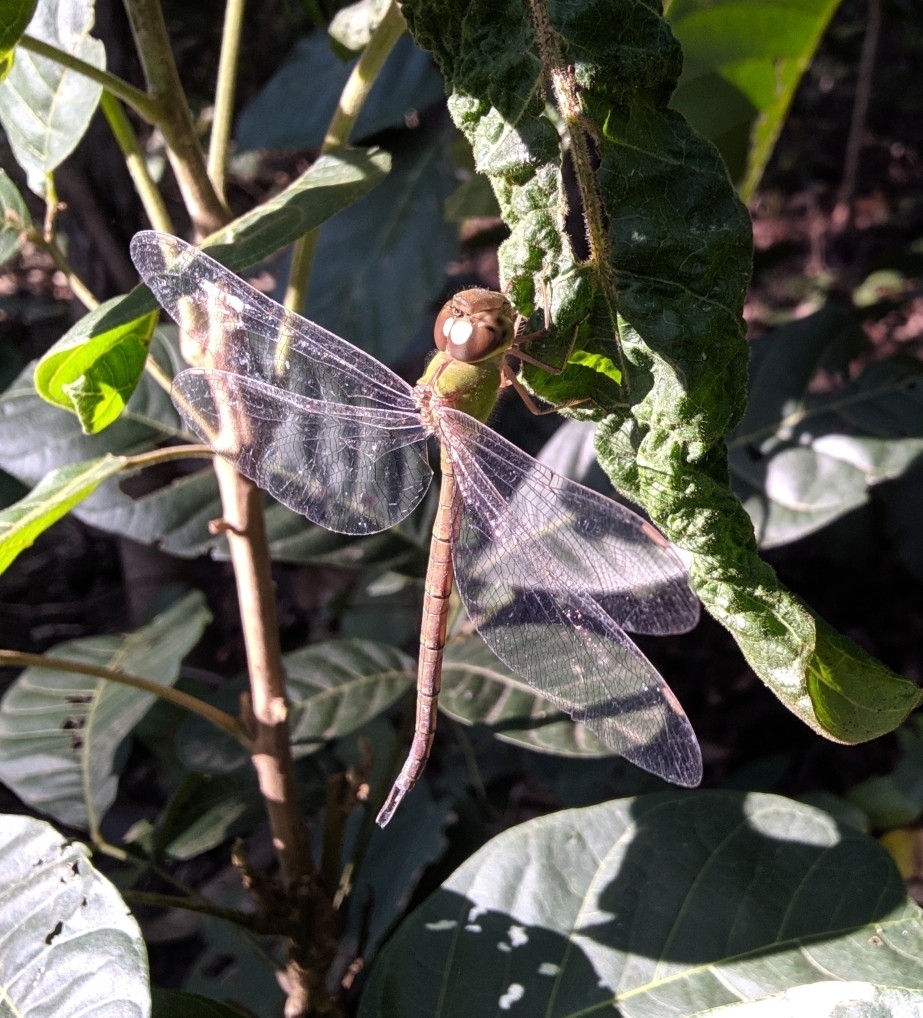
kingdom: Animalia
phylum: Arthropoda
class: Insecta
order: Odonata
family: Aeshnidae
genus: Gynacantha
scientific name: Gynacantha bayadera
